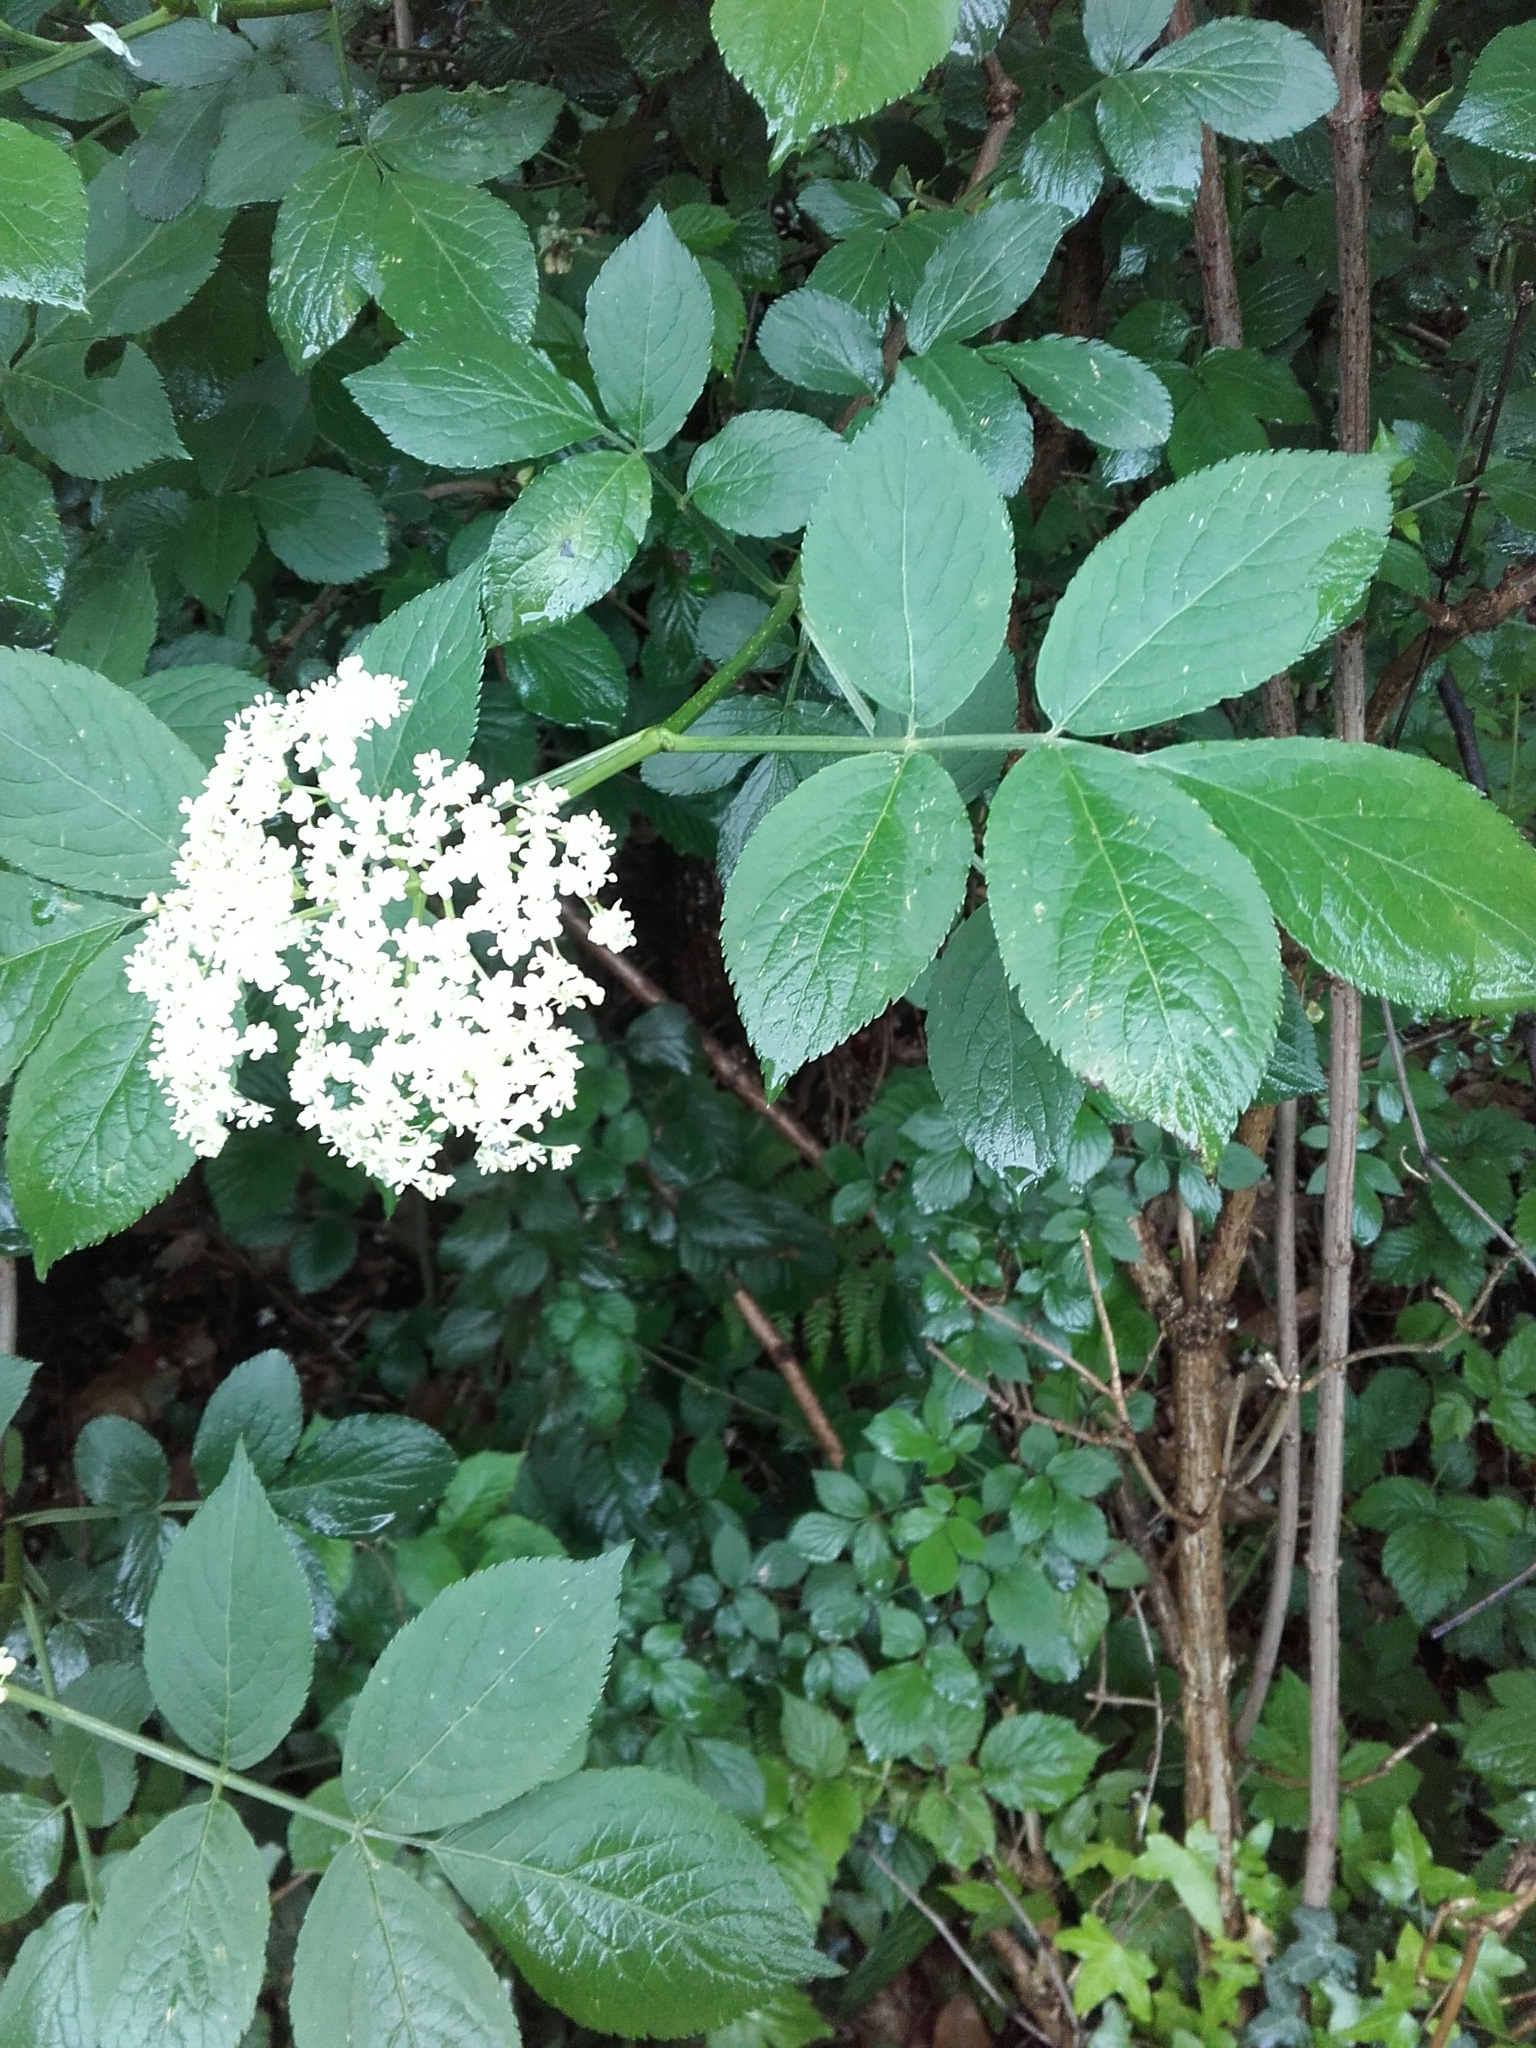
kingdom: Plantae
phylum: Tracheophyta
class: Magnoliopsida
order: Dipsacales
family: Viburnaceae
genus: Sambucus
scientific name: Sambucus nigra
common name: Elder
